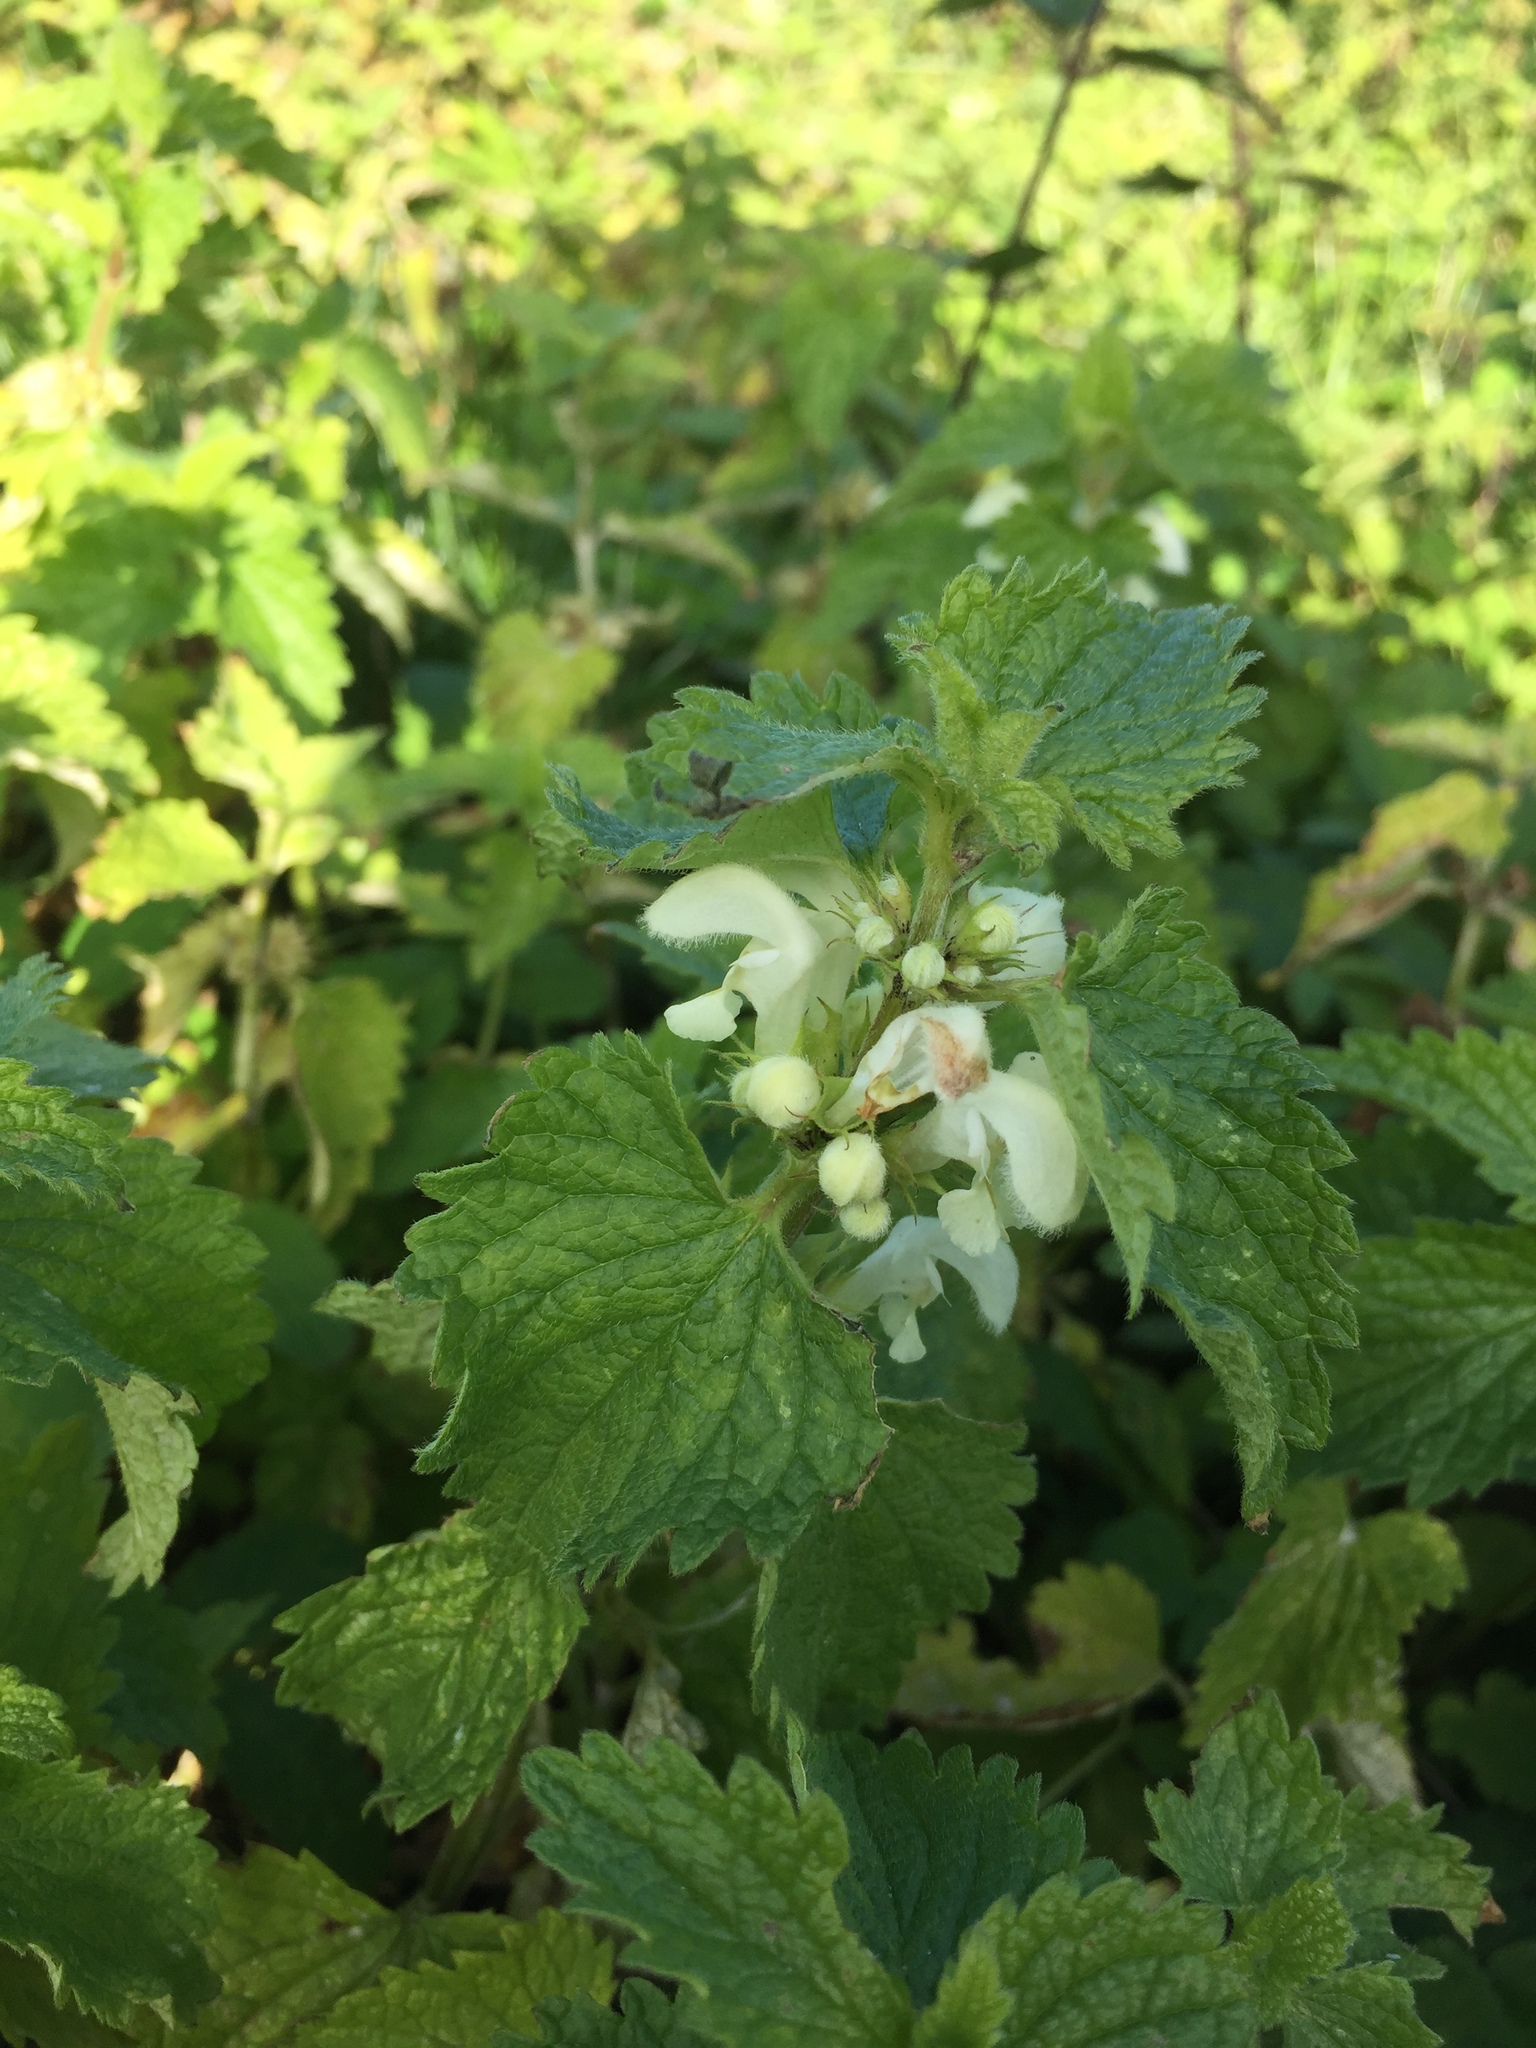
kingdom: Plantae
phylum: Tracheophyta
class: Magnoliopsida
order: Lamiales
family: Lamiaceae
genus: Lamium
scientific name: Lamium album
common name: White dead-nettle
